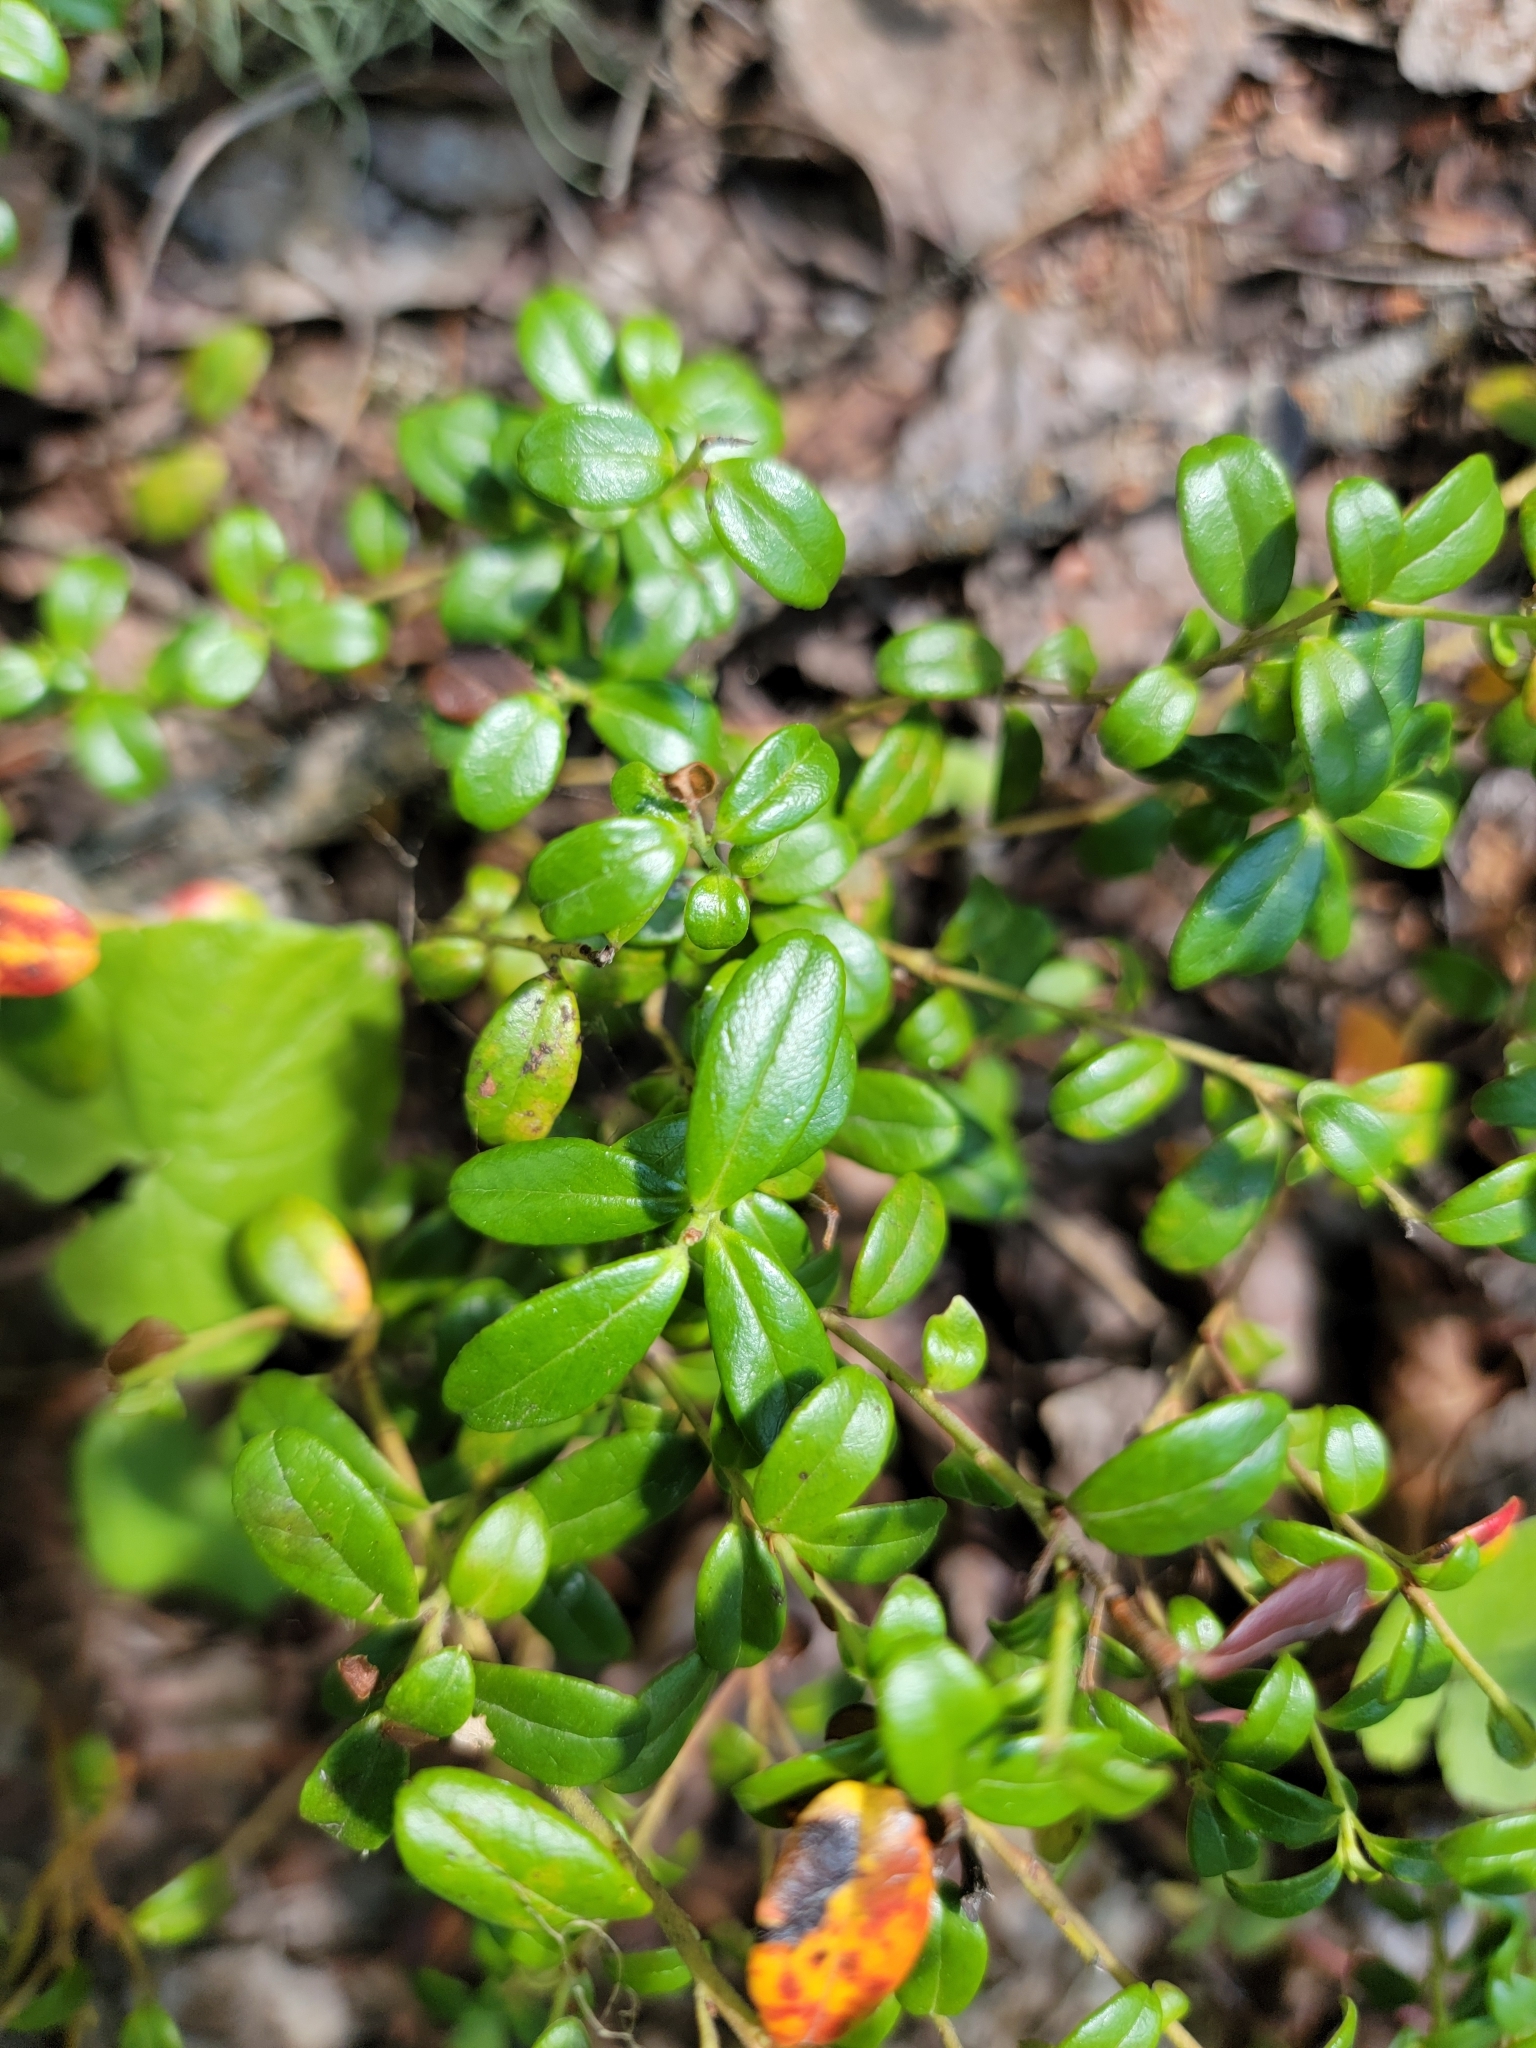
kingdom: Plantae
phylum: Tracheophyta
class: Magnoliopsida
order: Ericales
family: Ericaceae
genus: Vaccinium
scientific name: Vaccinium vitis-idaea
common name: Cowberry
